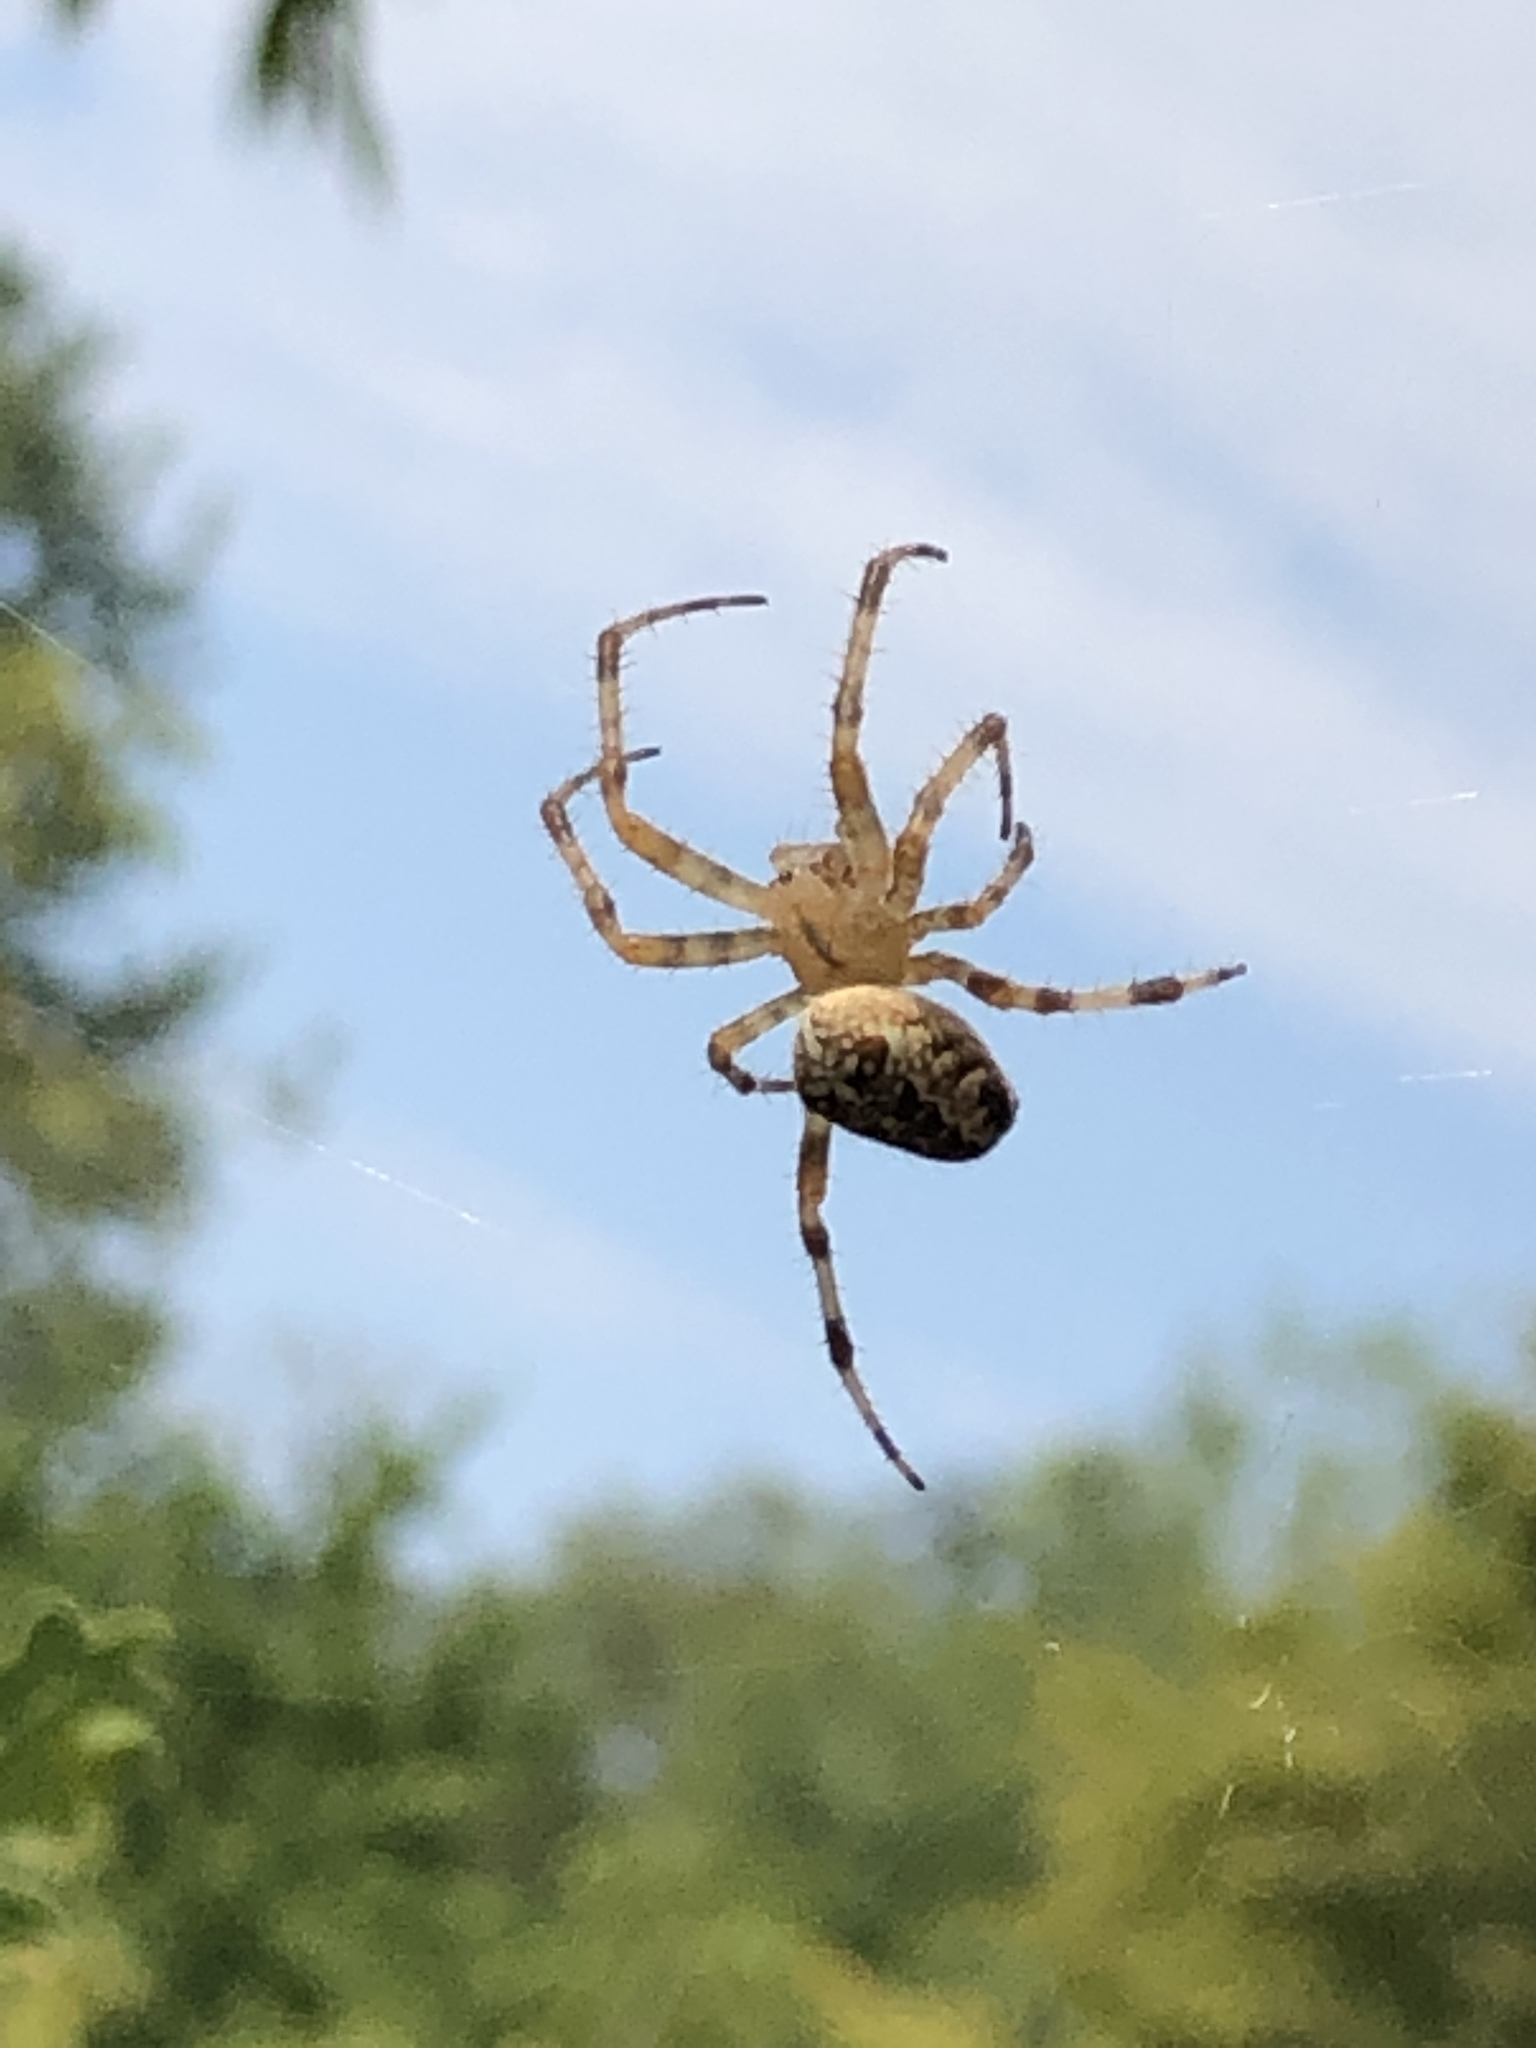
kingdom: Animalia
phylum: Arthropoda
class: Arachnida
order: Araneae
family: Araneidae
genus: Araneus
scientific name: Araneus diadematus
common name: Cross orbweaver
